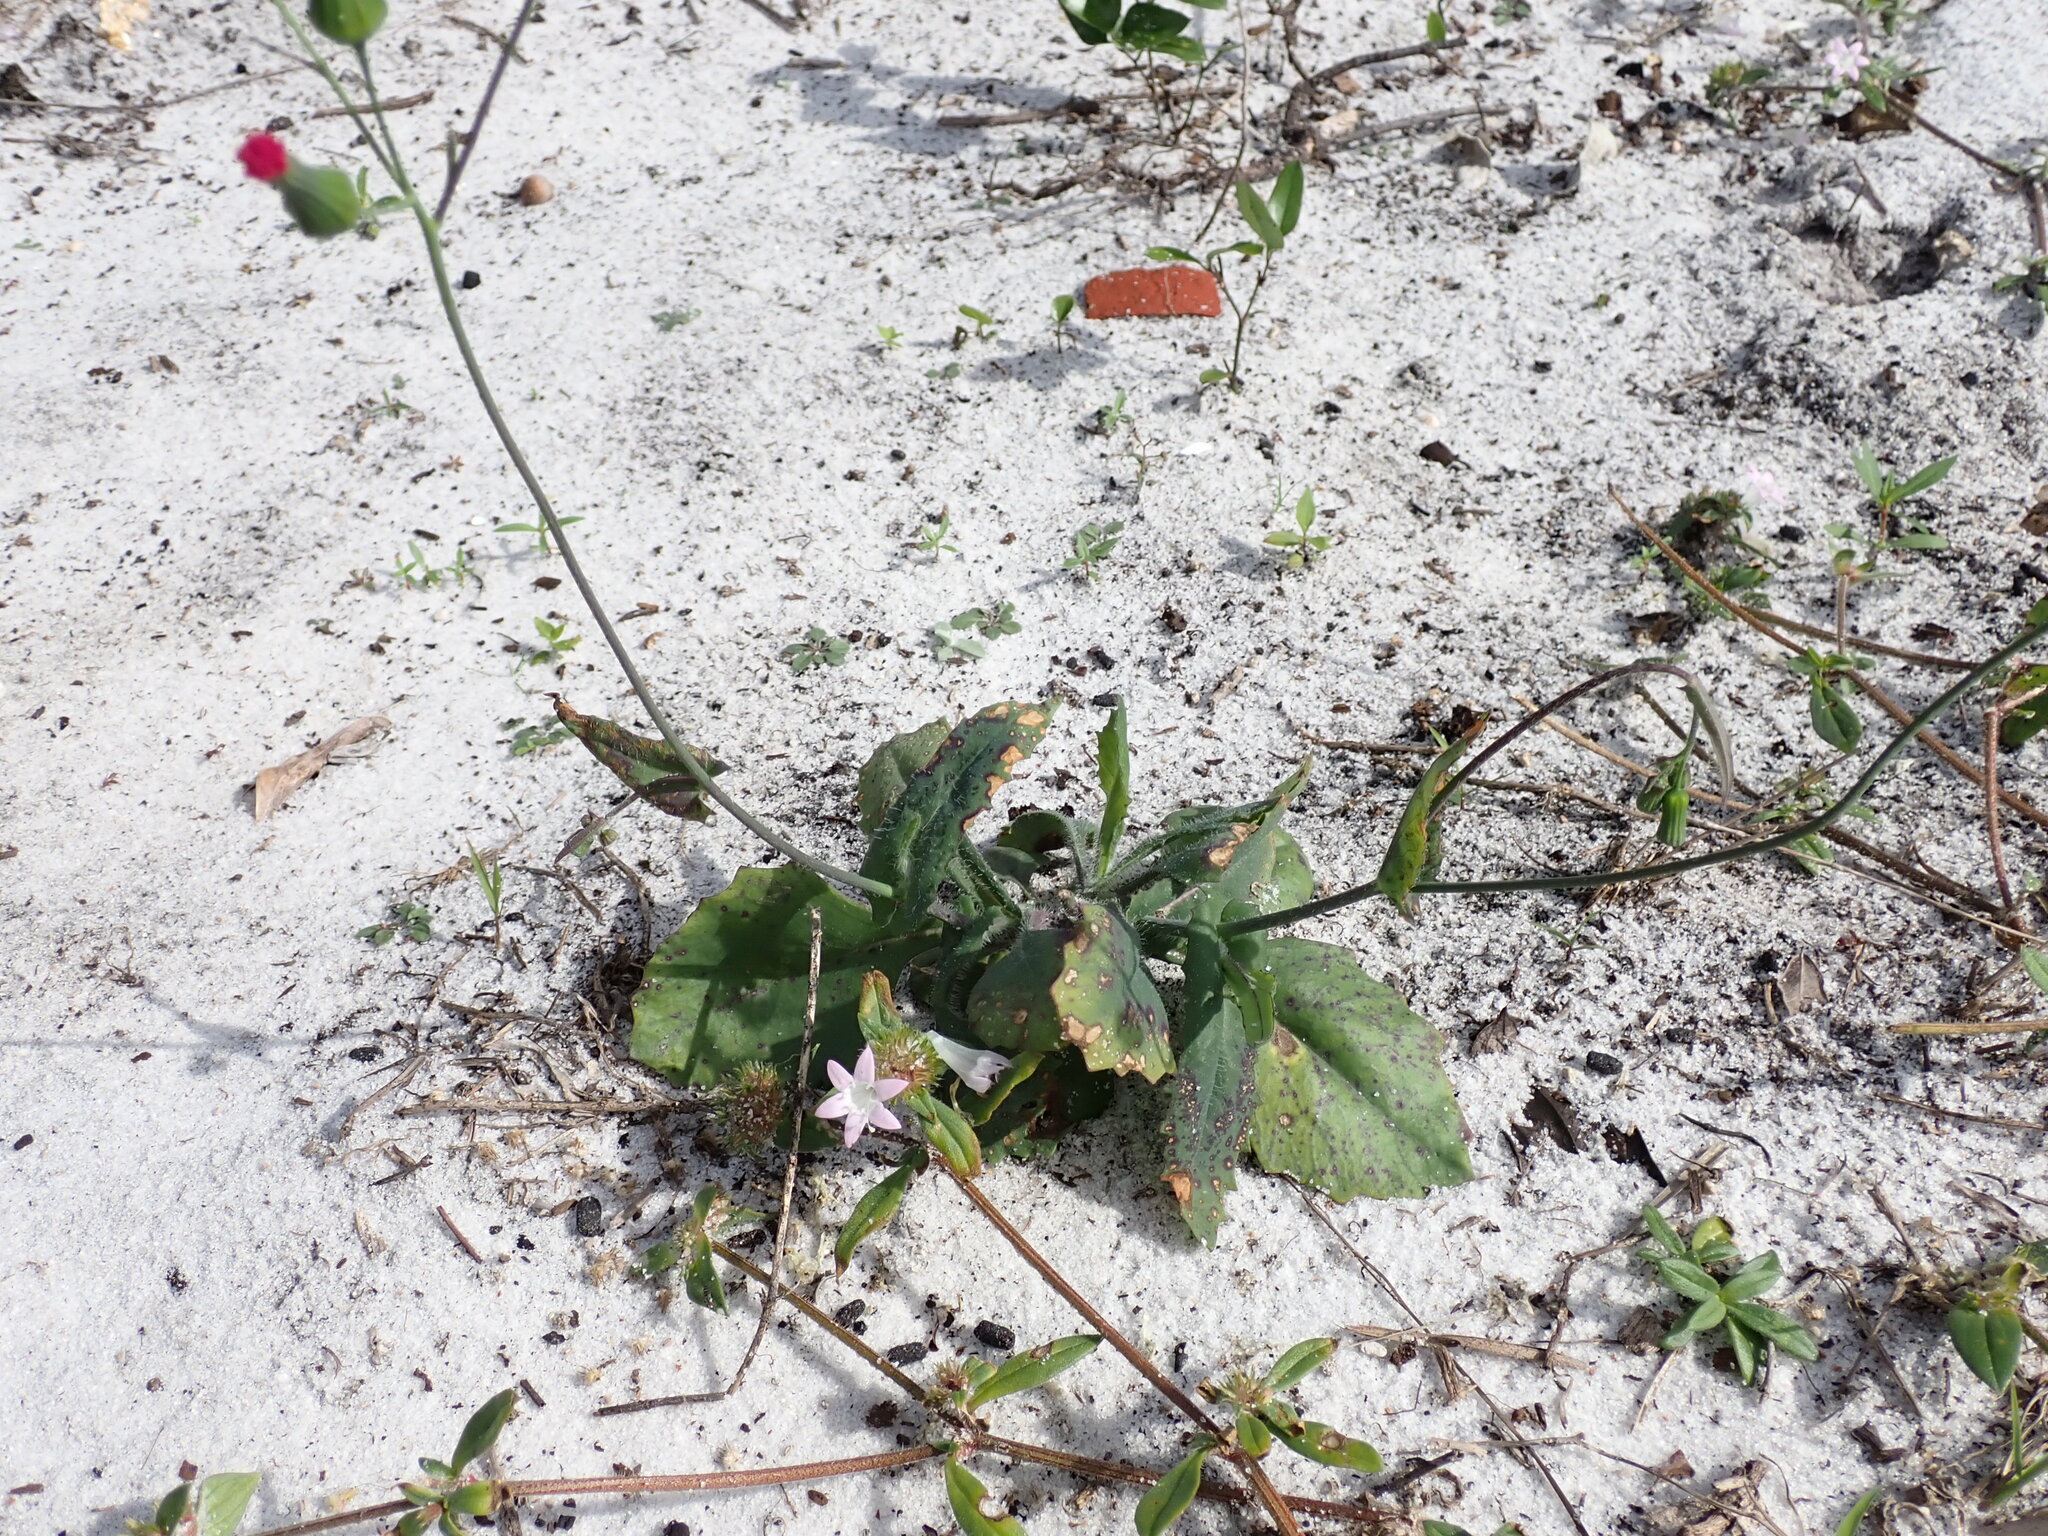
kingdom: Plantae
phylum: Tracheophyta
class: Magnoliopsida
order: Asterales
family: Asteraceae
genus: Emilia
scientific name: Emilia fosbergii
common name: Florida tasselflower
